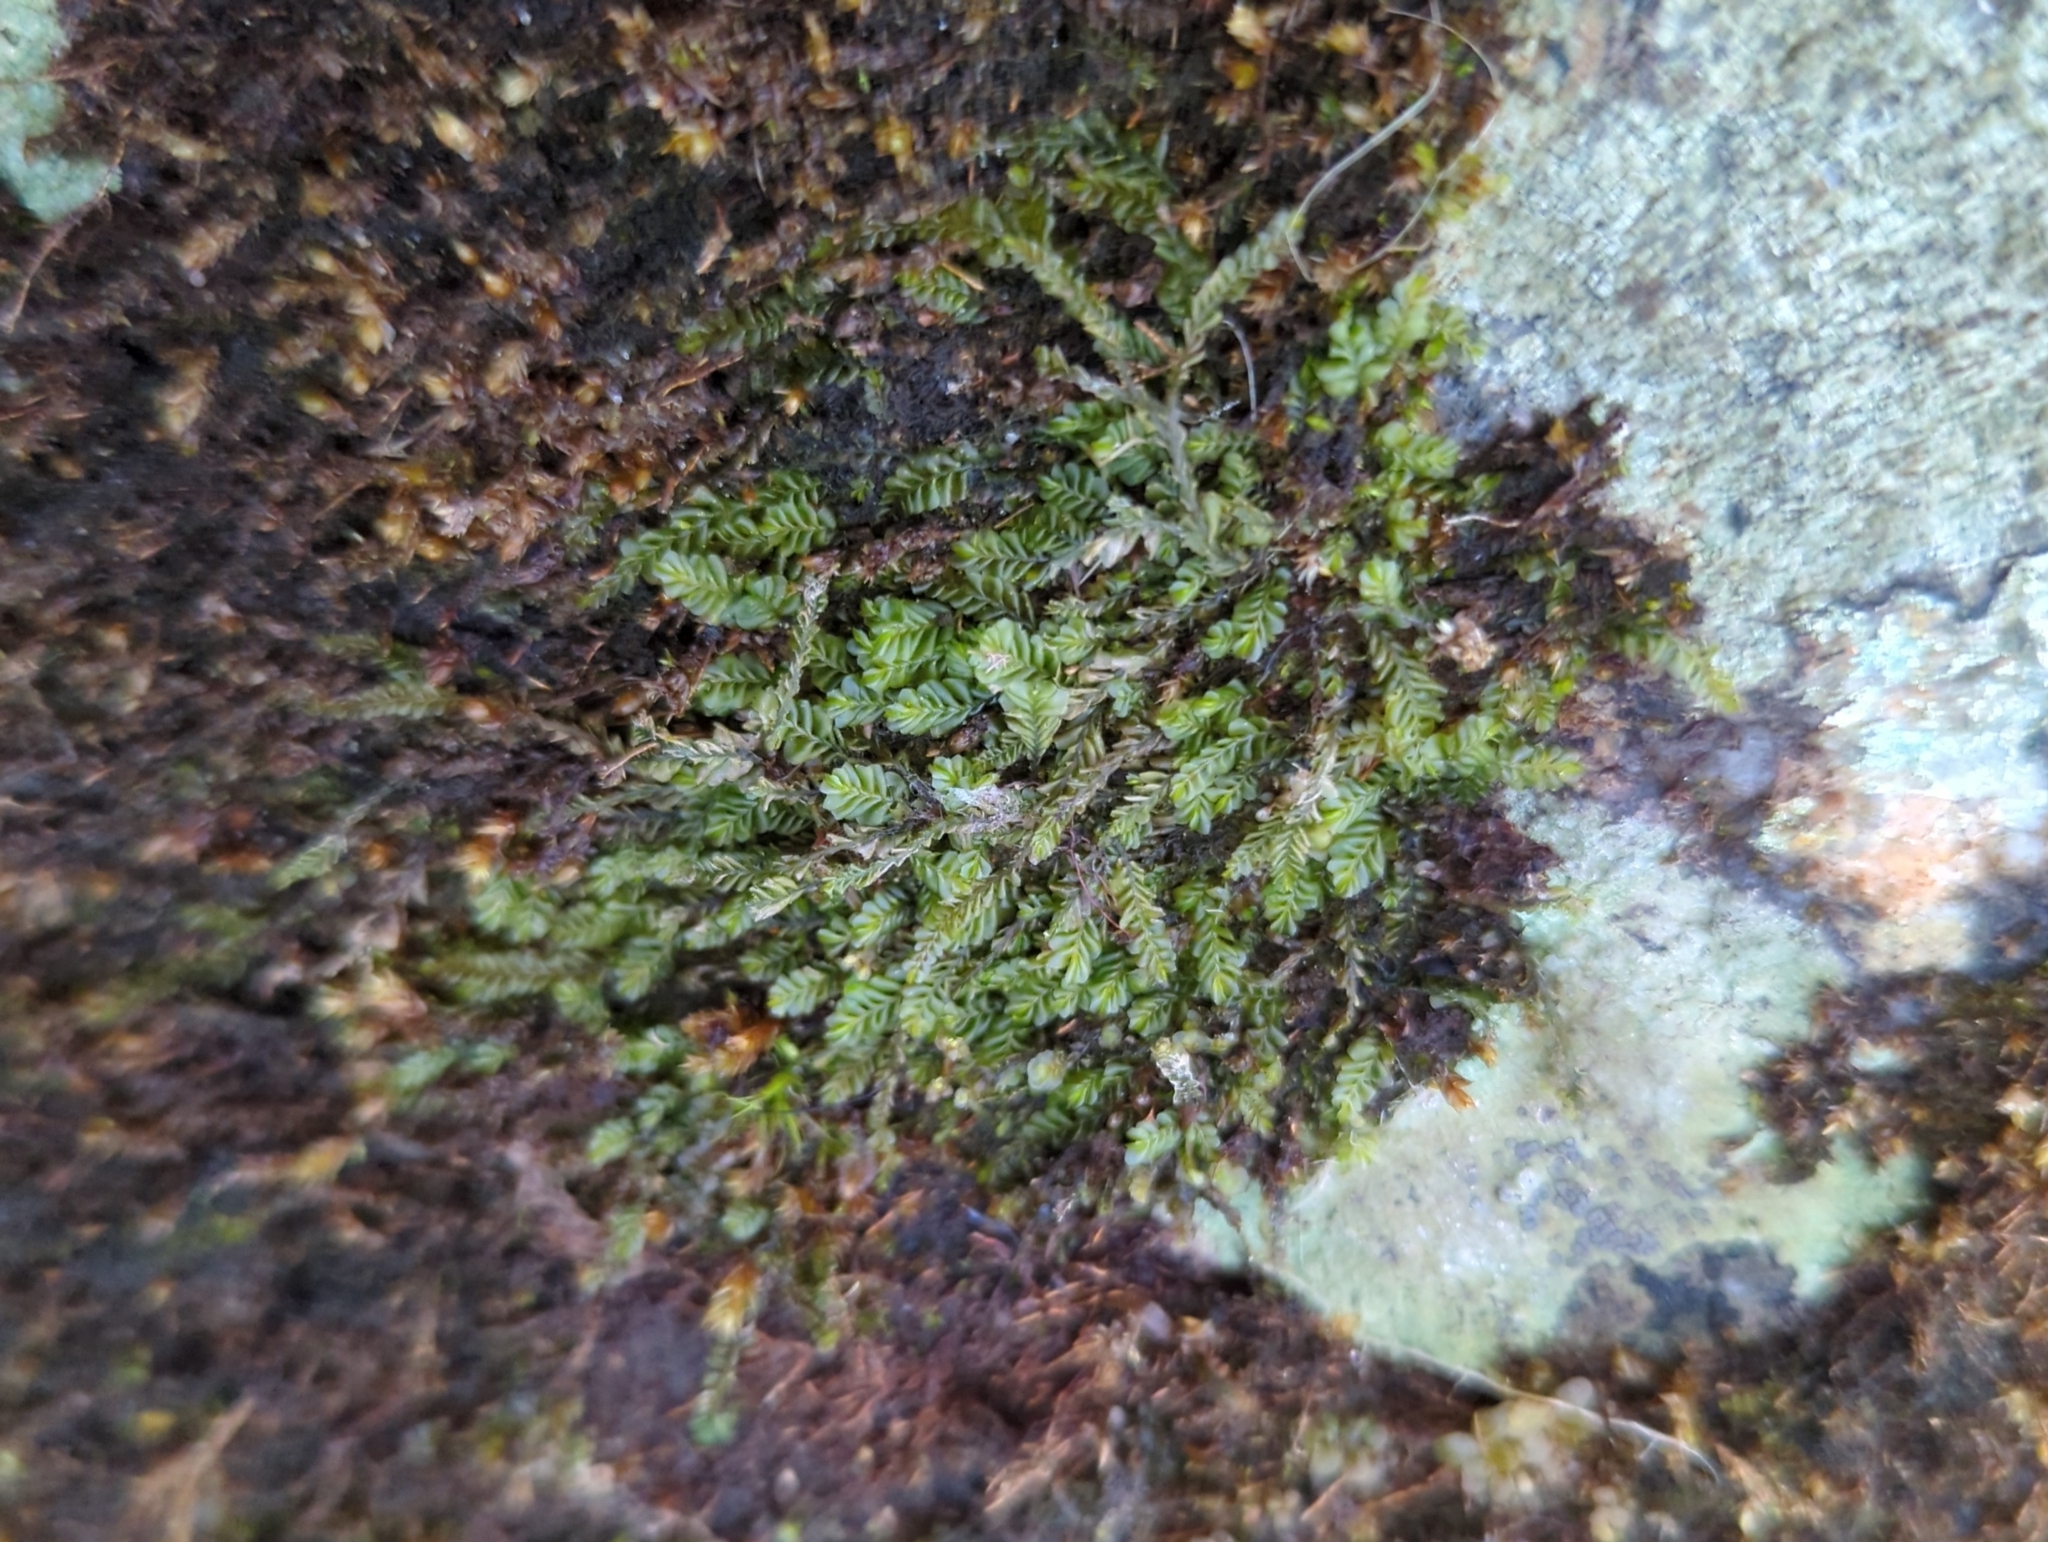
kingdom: Plantae
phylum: Marchantiophyta
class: Jungermanniopsida
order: Jungermanniales
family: Plagiochilaceae
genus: Plagiochila
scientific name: Plagiochila porelloides
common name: Lesser featherwort
